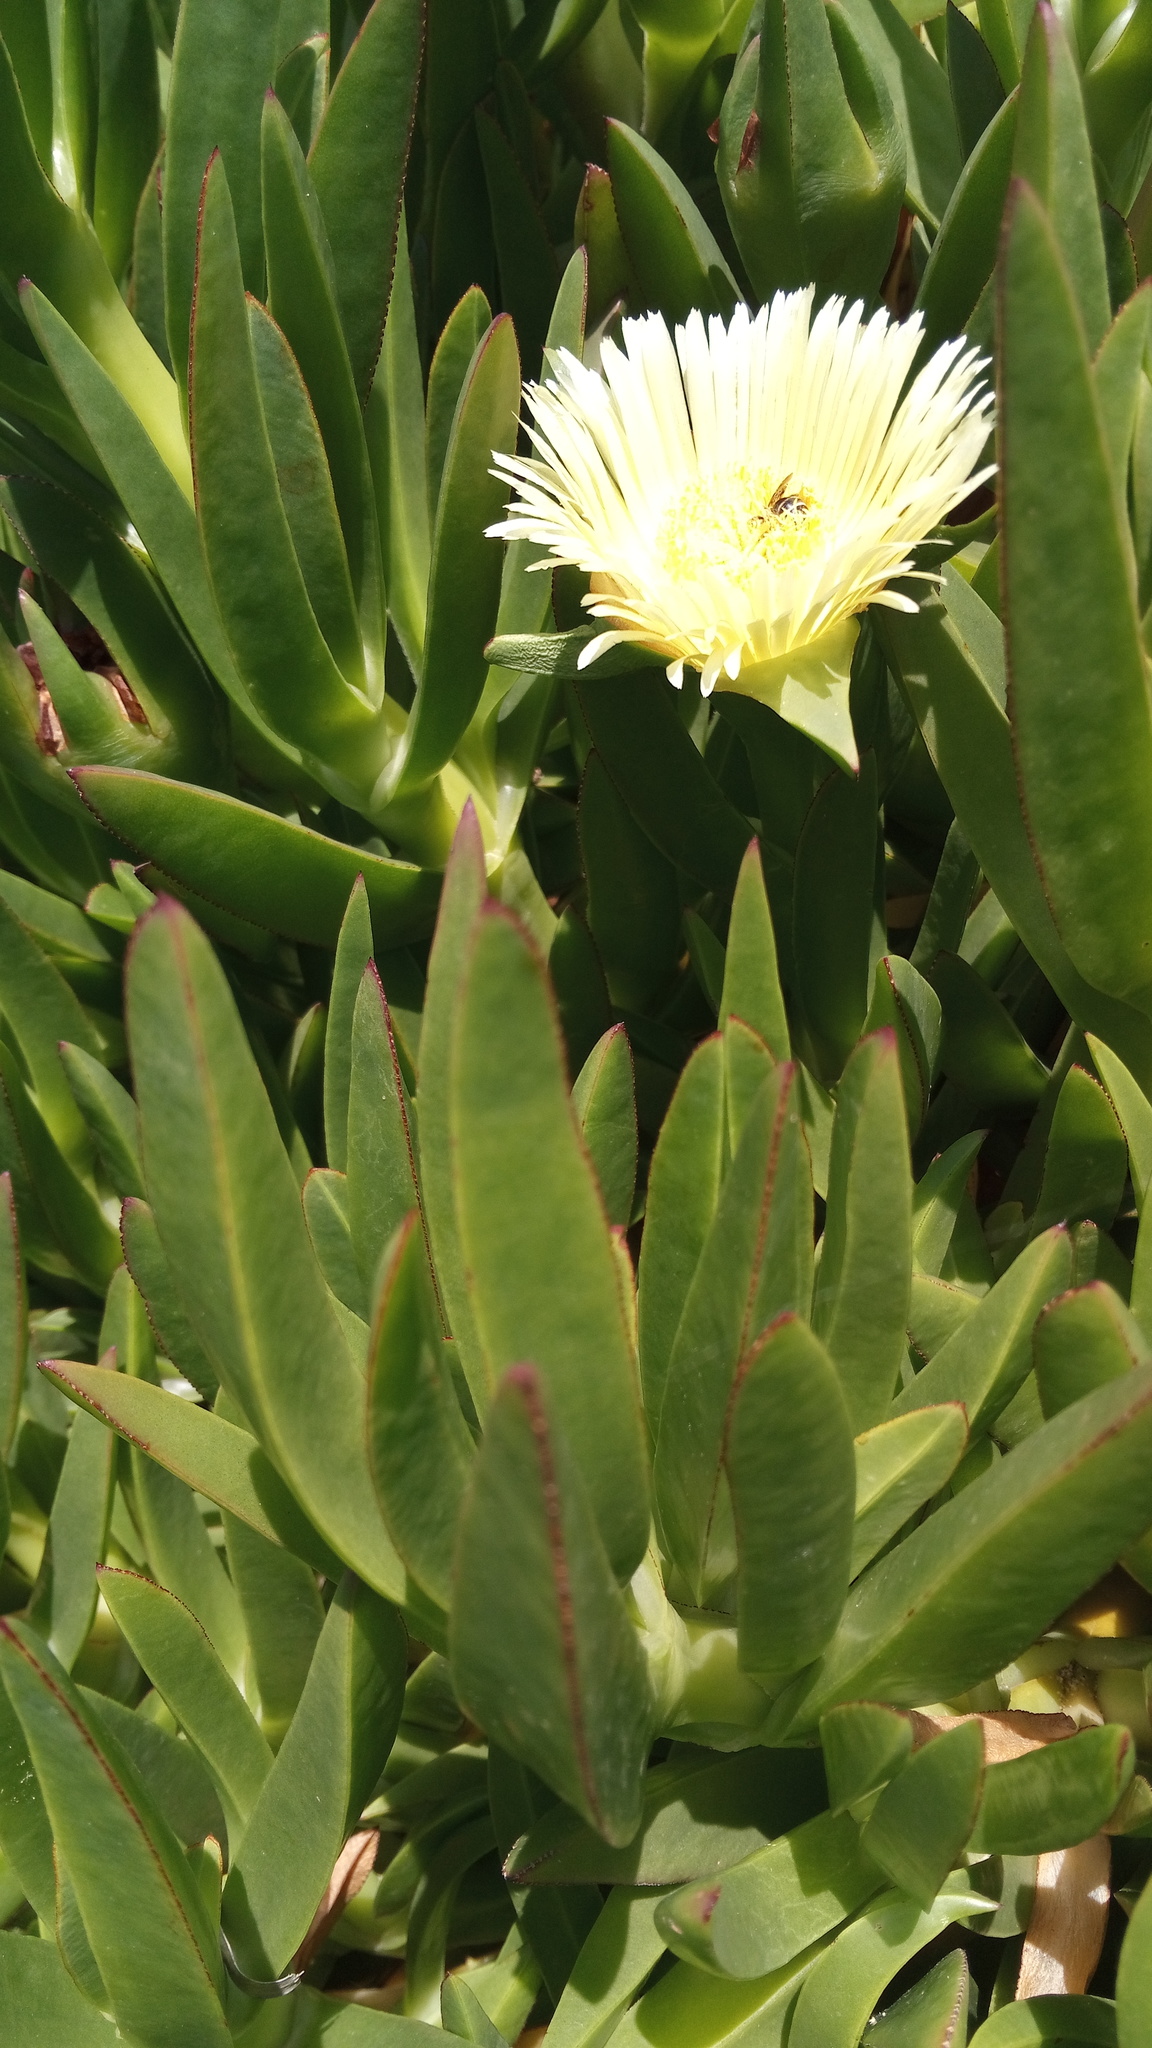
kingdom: Plantae
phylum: Tracheophyta
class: Magnoliopsida
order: Caryophyllales
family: Aizoaceae
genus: Carpobrotus
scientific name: Carpobrotus edulis
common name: Hottentot-fig
